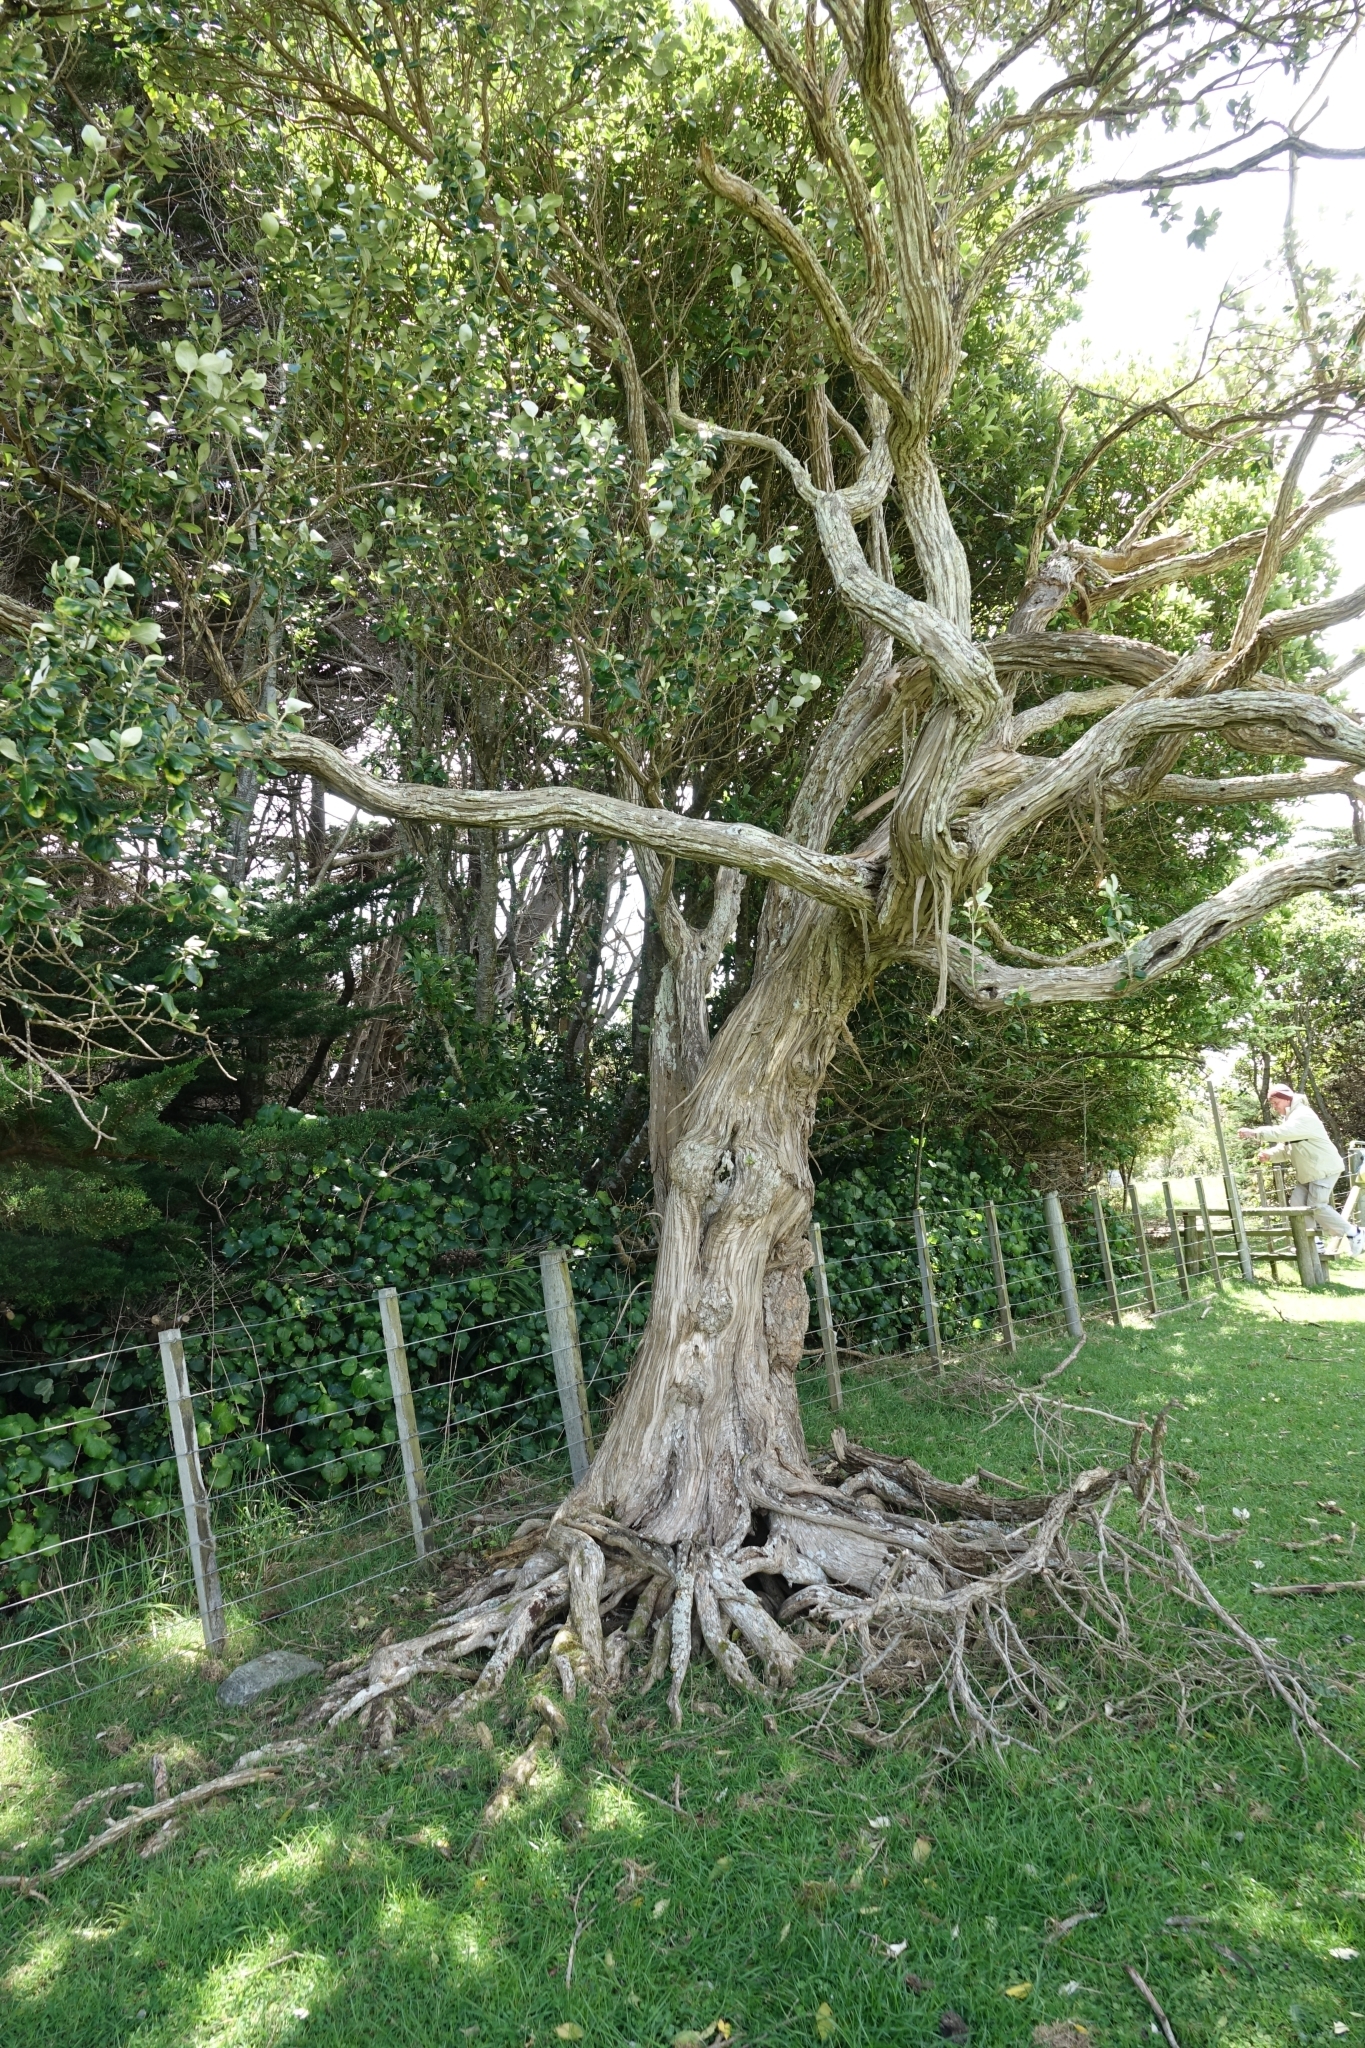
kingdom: Plantae
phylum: Tracheophyta
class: Magnoliopsida
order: Asterales
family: Asteraceae
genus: Olearia
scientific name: Olearia traversiorum
